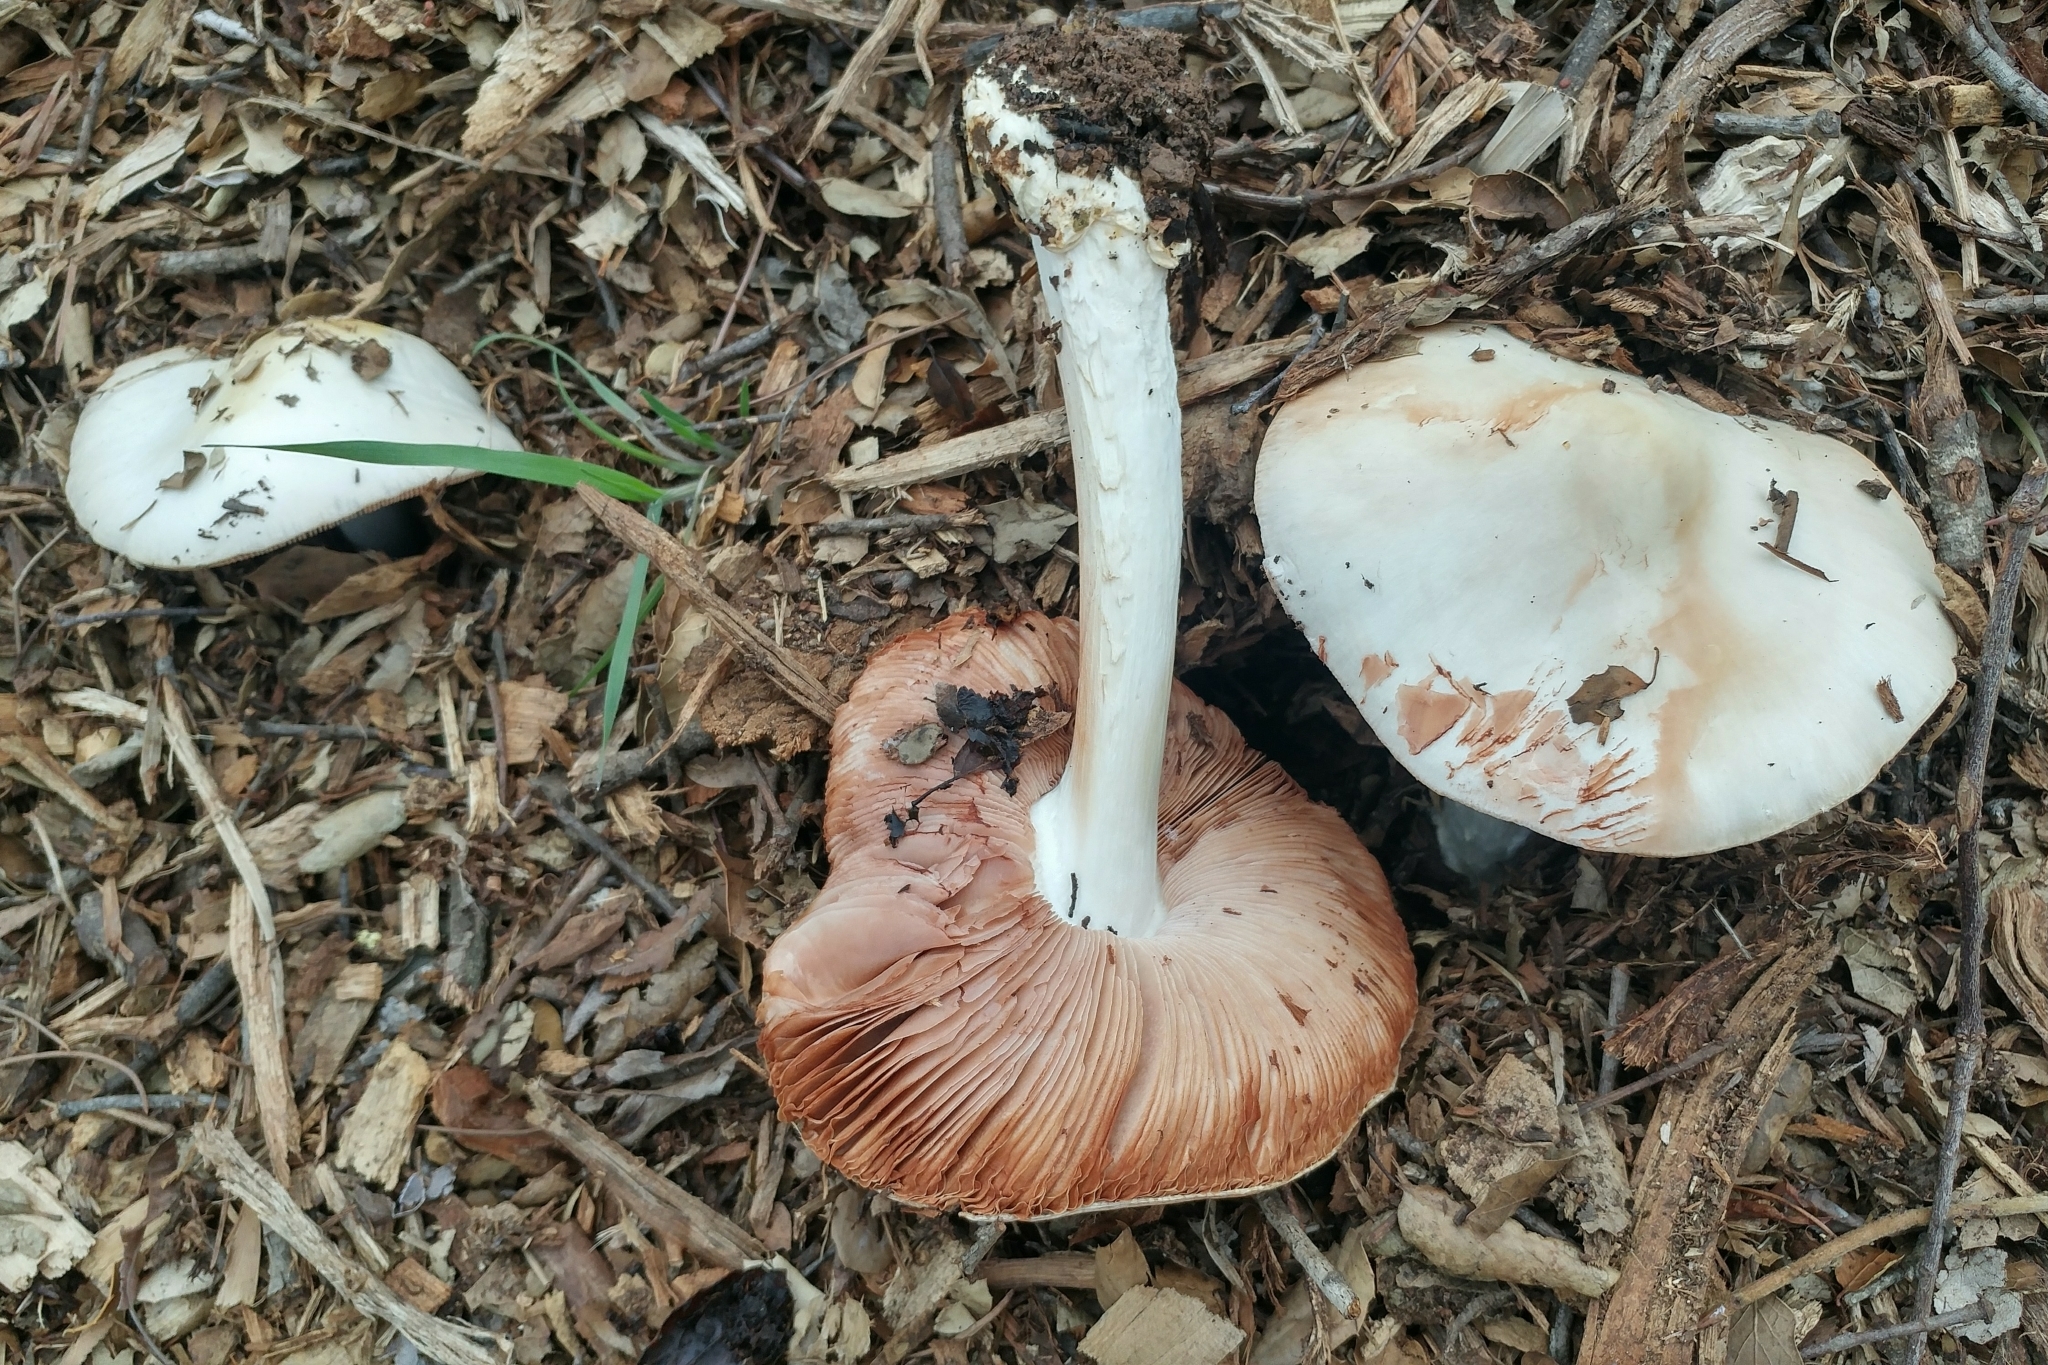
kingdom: Fungi
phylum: Basidiomycota
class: Agaricomycetes
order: Agaricales
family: Pluteaceae
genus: Volvopluteus
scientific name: Volvopluteus gloiocephalus
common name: Stubble rosegill
